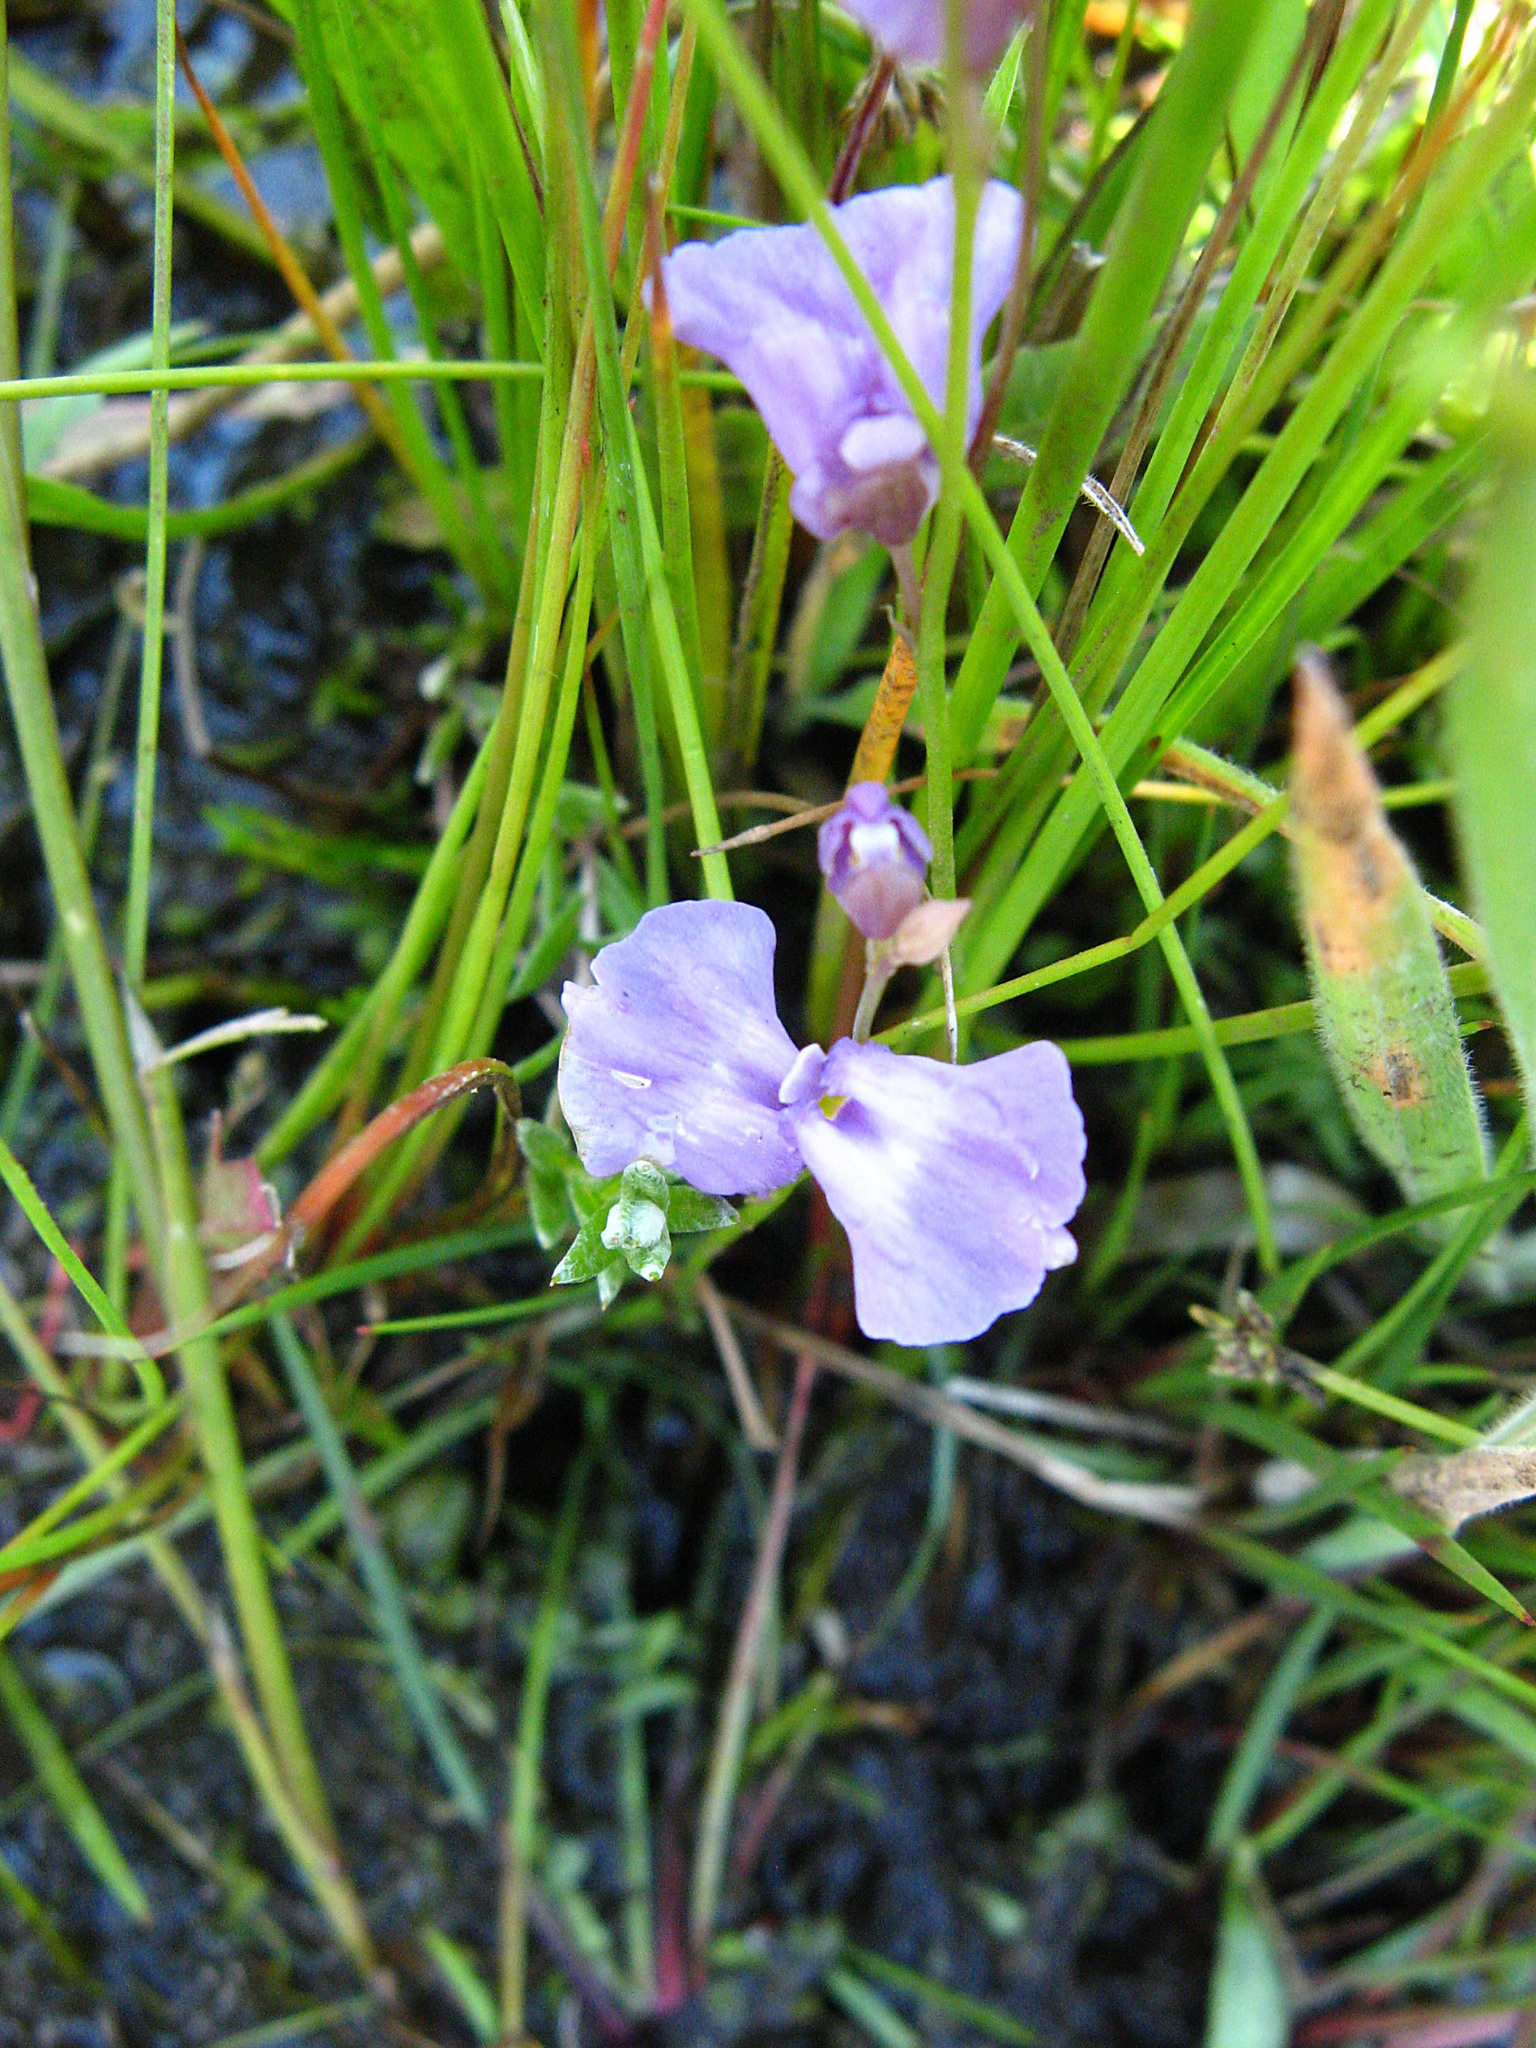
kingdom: Plantae
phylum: Tracheophyta
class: Magnoliopsida
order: Lamiales
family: Lentibulariaceae
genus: Utricularia
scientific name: Utricularia livida
